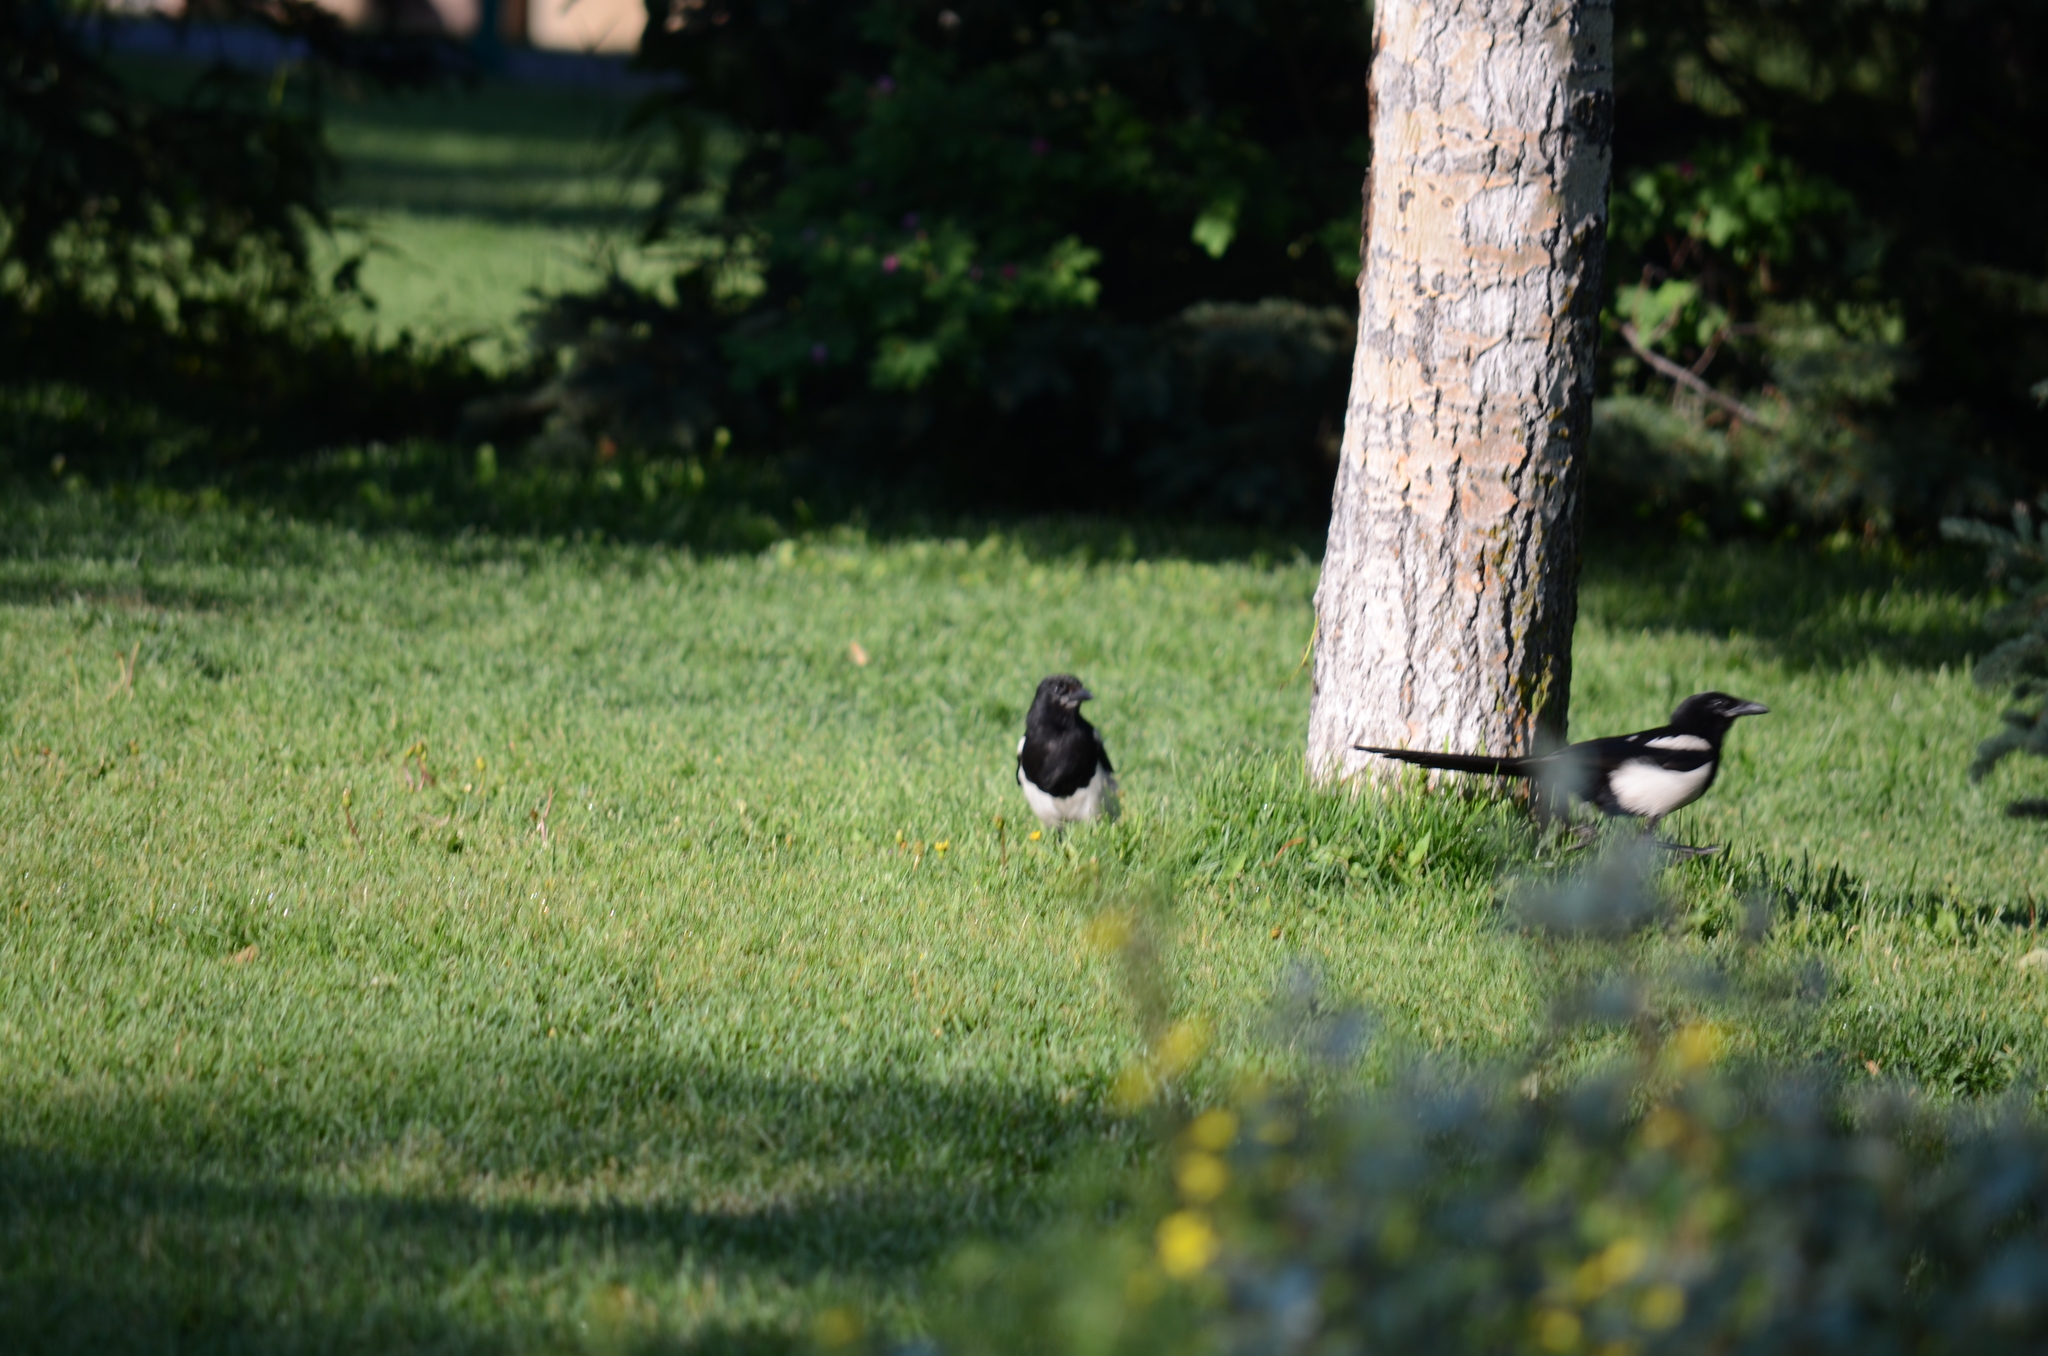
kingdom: Animalia
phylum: Chordata
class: Aves
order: Passeriformes
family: Corvidae
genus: Pica
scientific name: Pica hudsonia
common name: Black-billed magpie
